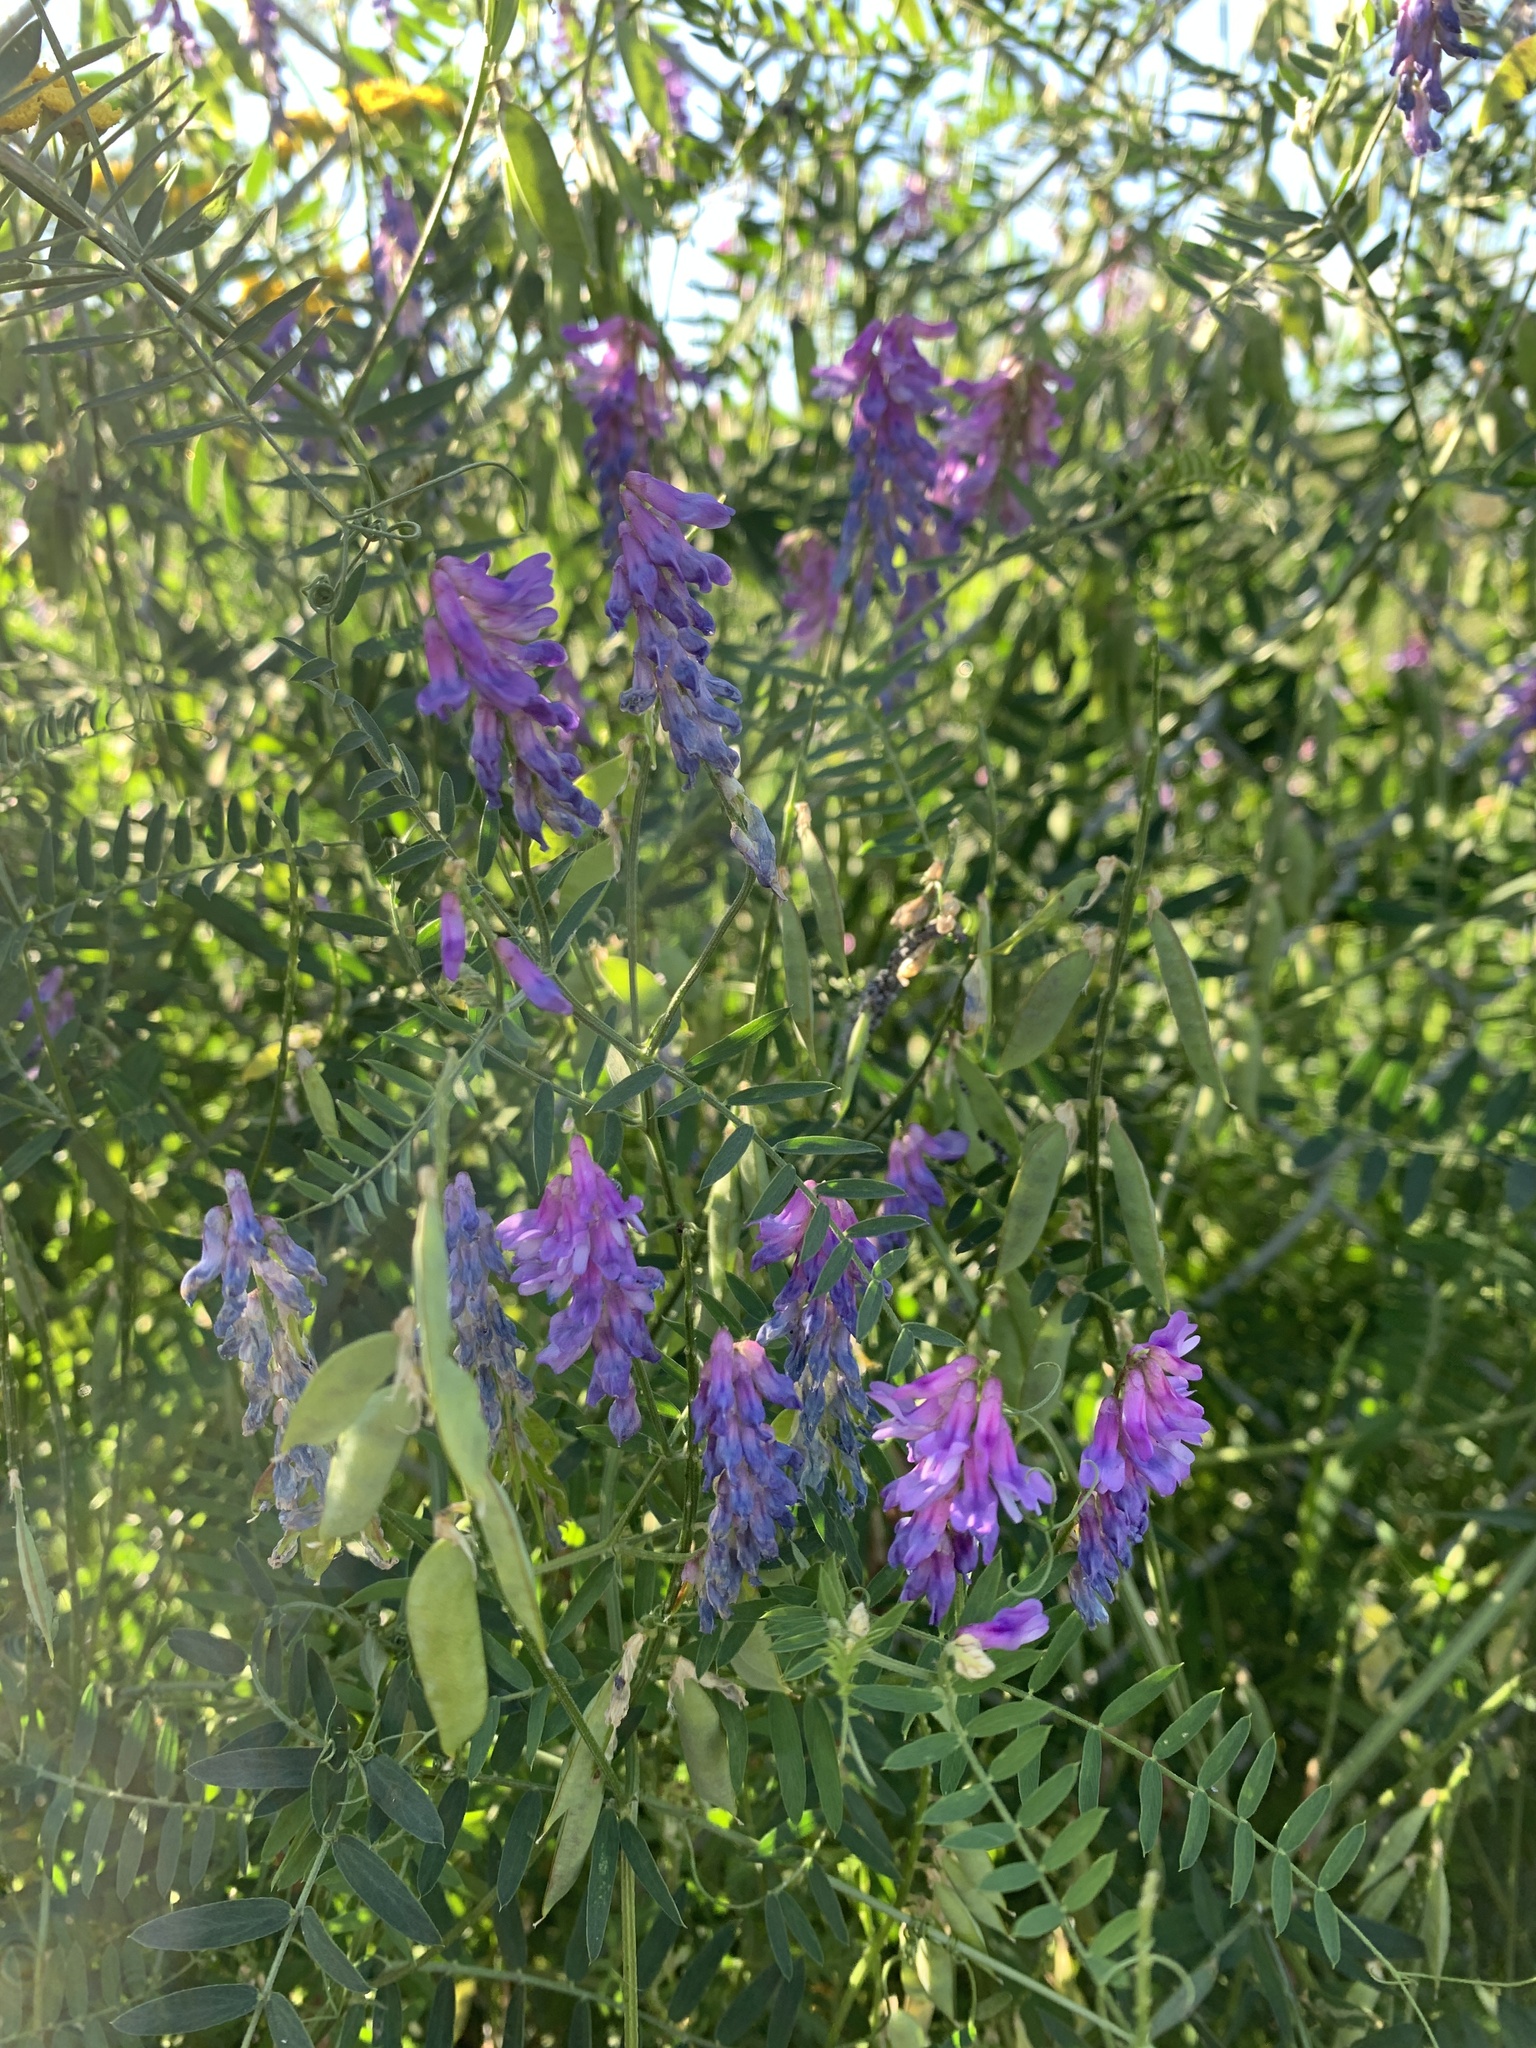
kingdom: Plantae
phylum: Tracheophyta
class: Magnoliopsida
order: Fabales
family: Fabaceae
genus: Vicia
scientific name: Vicia cracca
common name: Bird vetch
